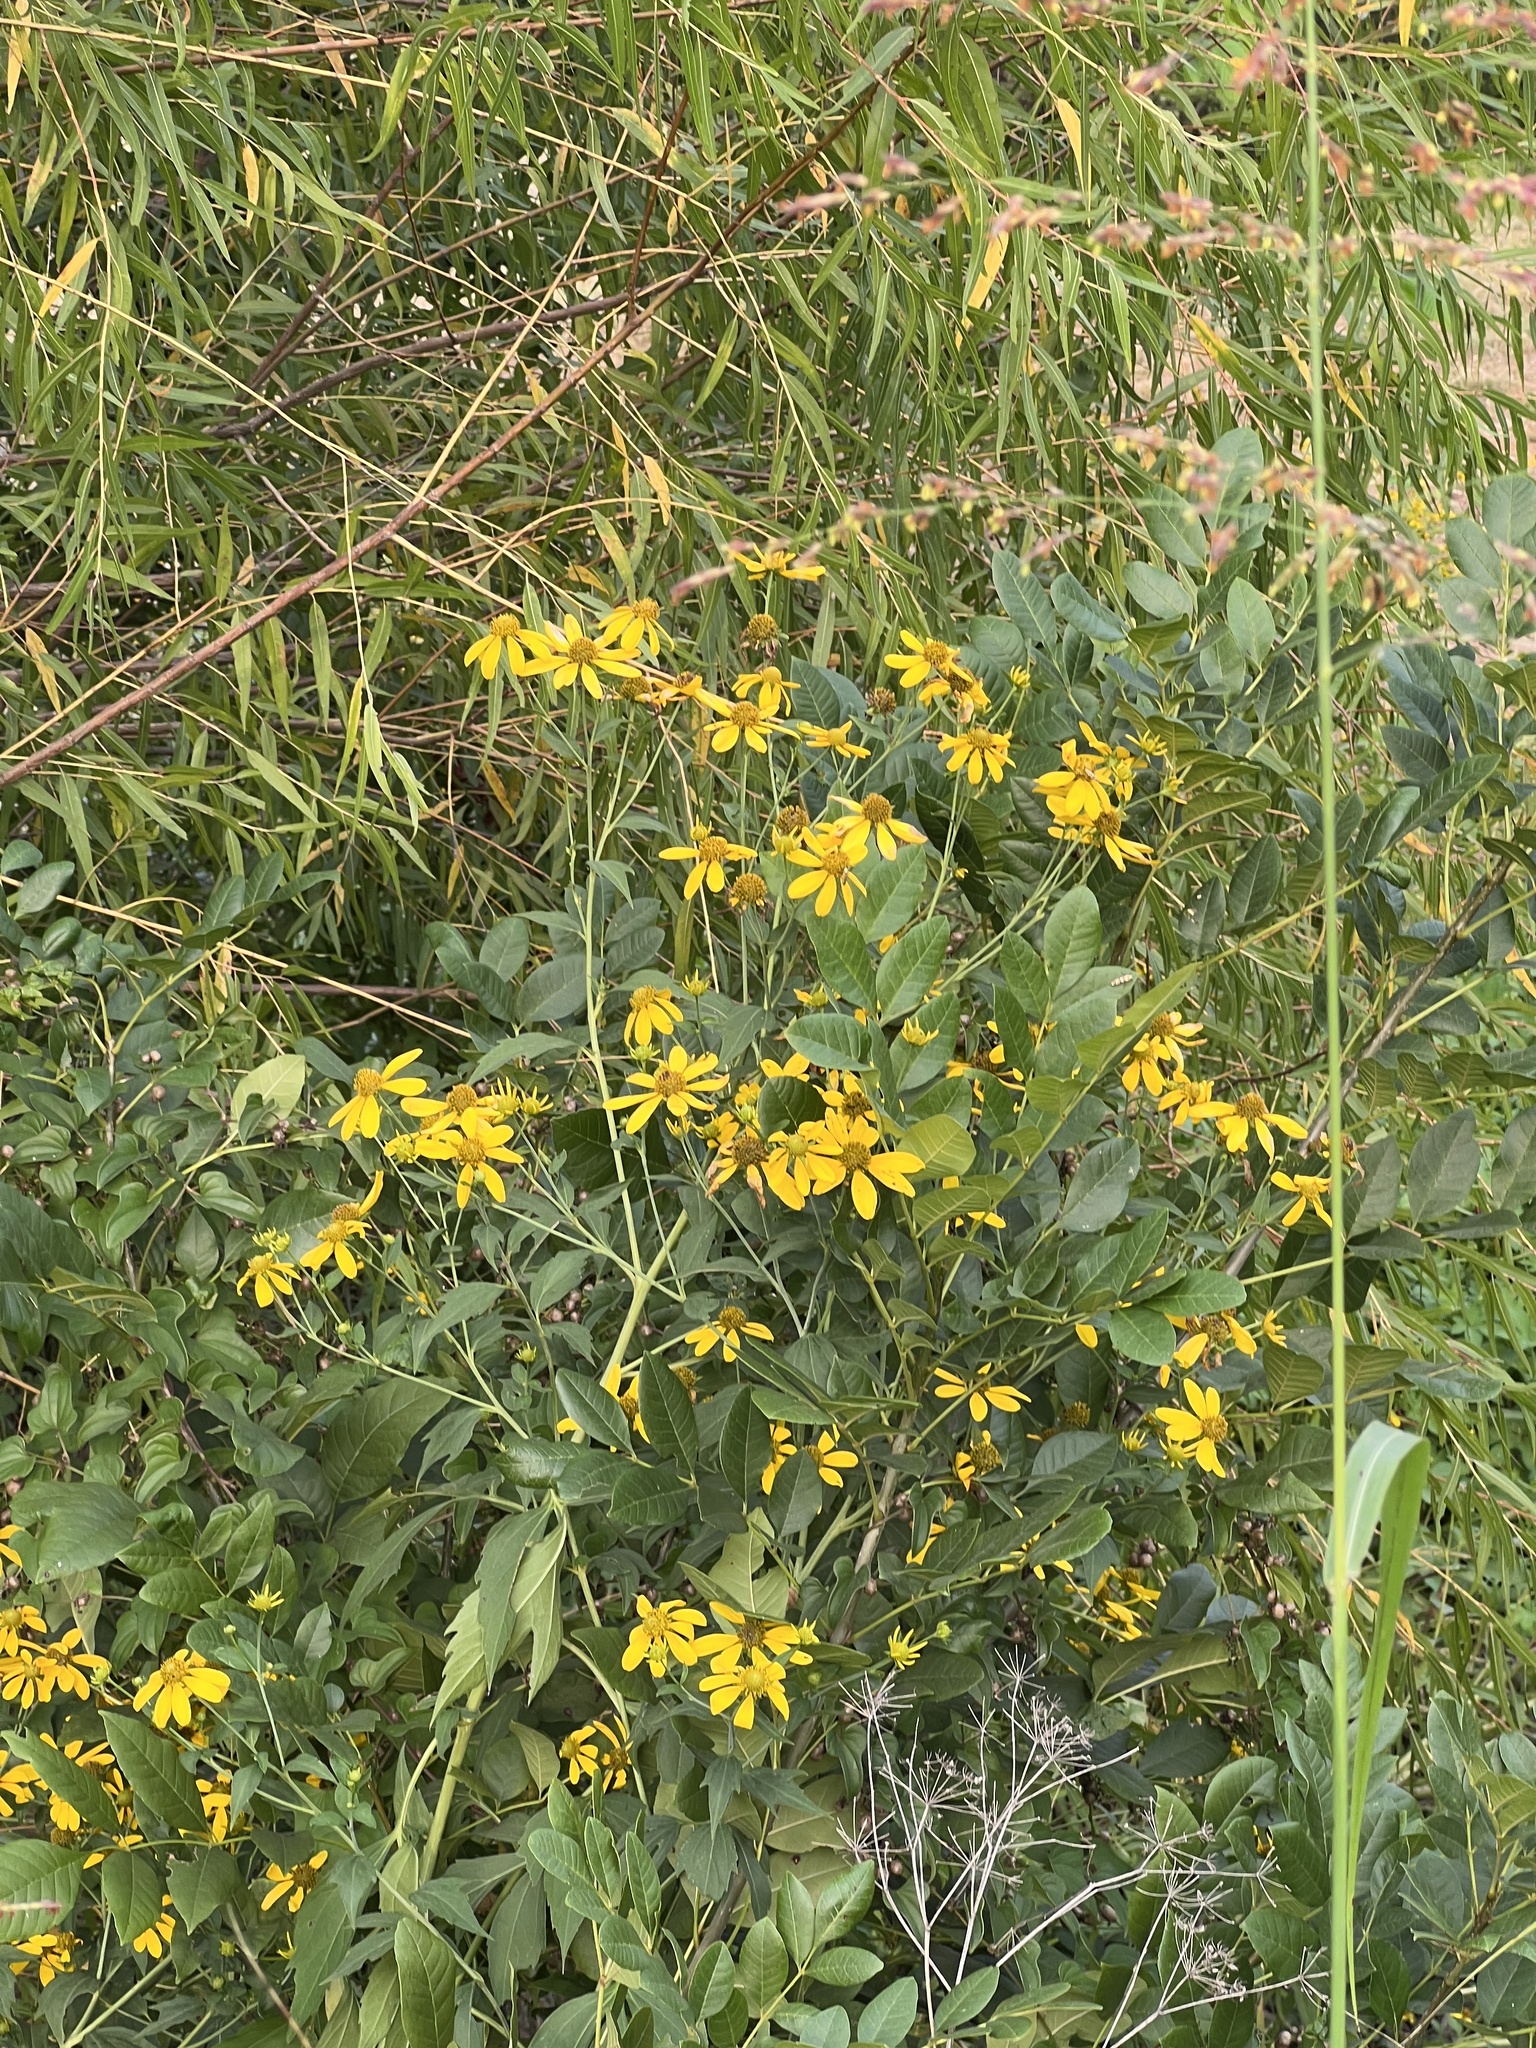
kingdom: Plantae
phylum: Tracheophyta
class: Magnoliopsida
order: Asterales
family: Asteraceae
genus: Rudbeckia
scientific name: Rudbeckia laciniata
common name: Coneflower
